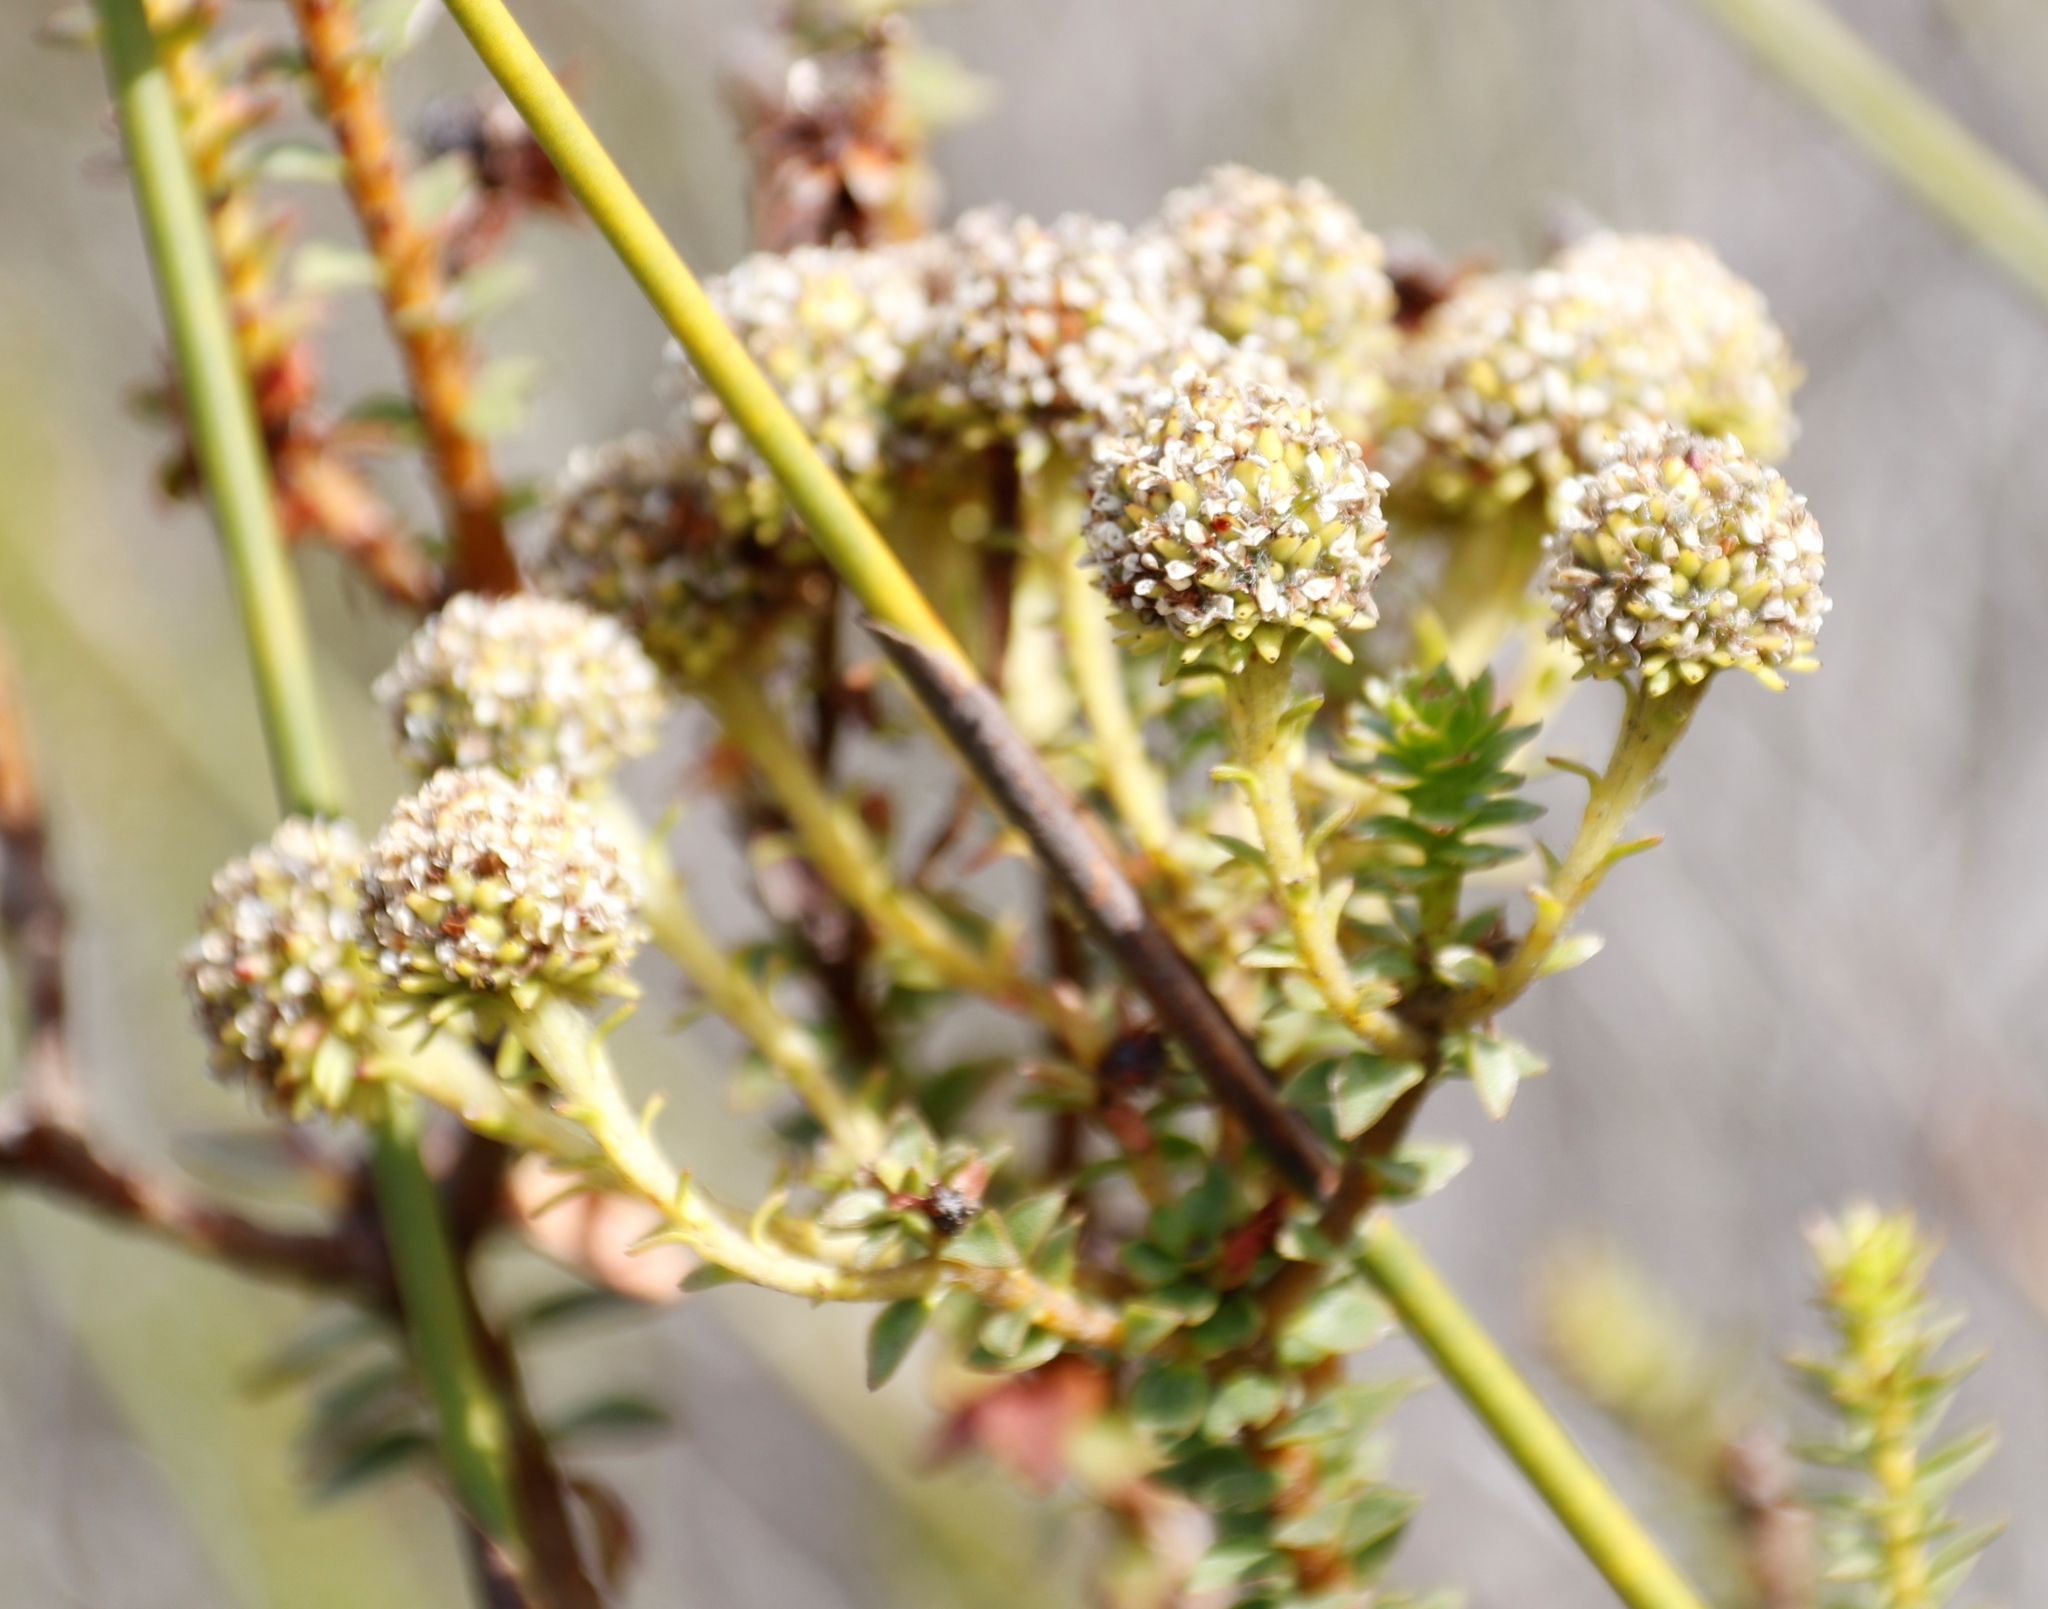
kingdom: Plantae
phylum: Tracheophyta
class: Magnoliopsida
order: Bruniales
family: Bruniaceae
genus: Berzelia
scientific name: Berzelia cordifolia
